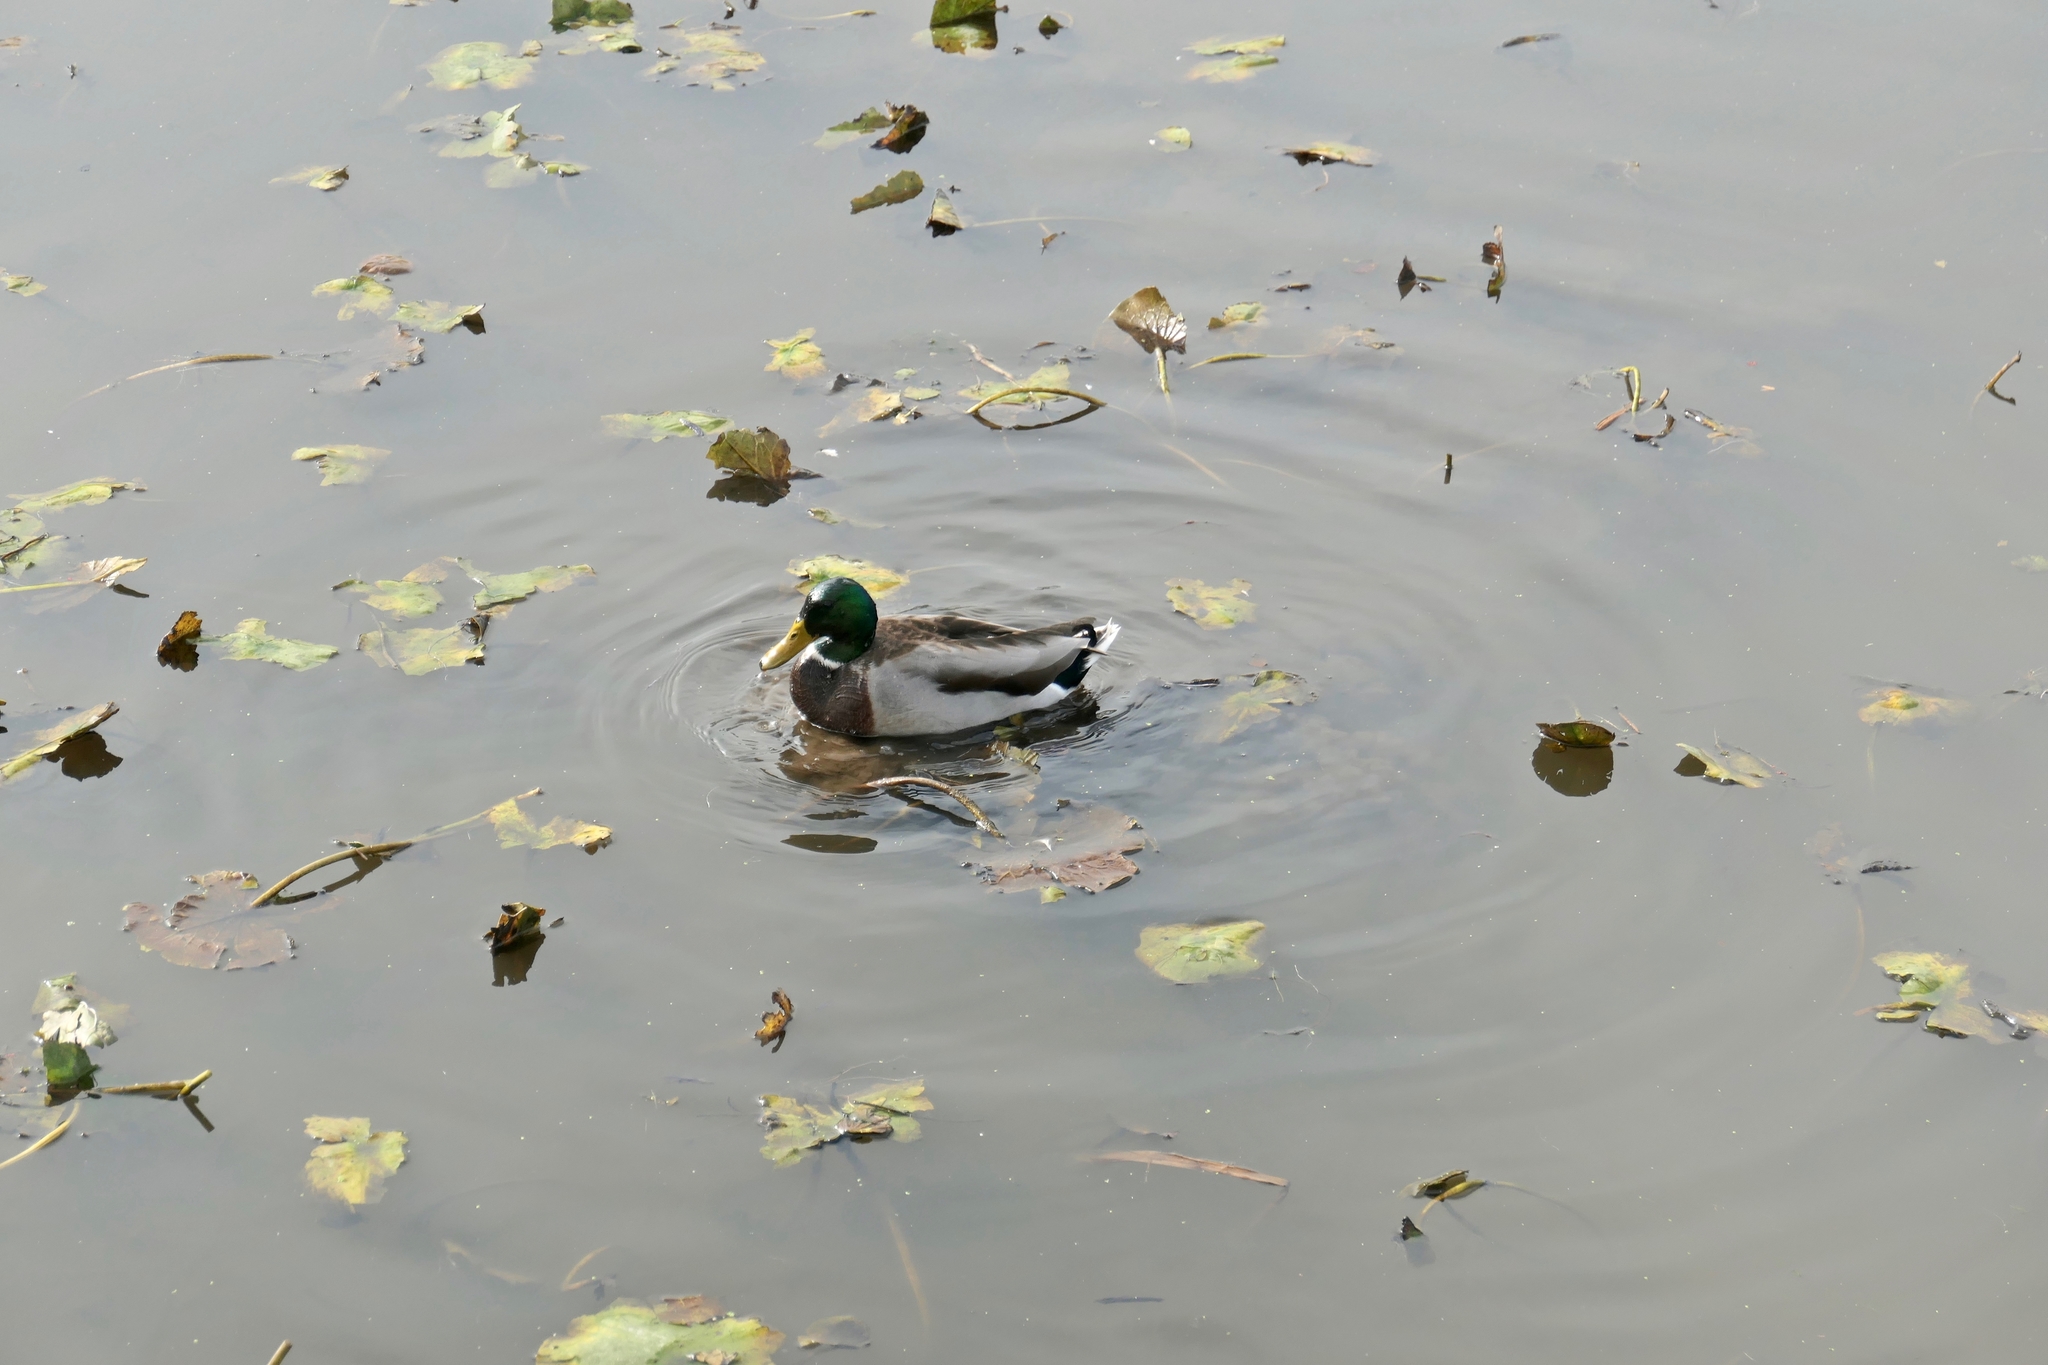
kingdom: Animalia
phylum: Chordata
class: Aves
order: Anseriformes
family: Anatidae
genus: Anas
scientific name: Anas platyrhynchos
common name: Mallard
